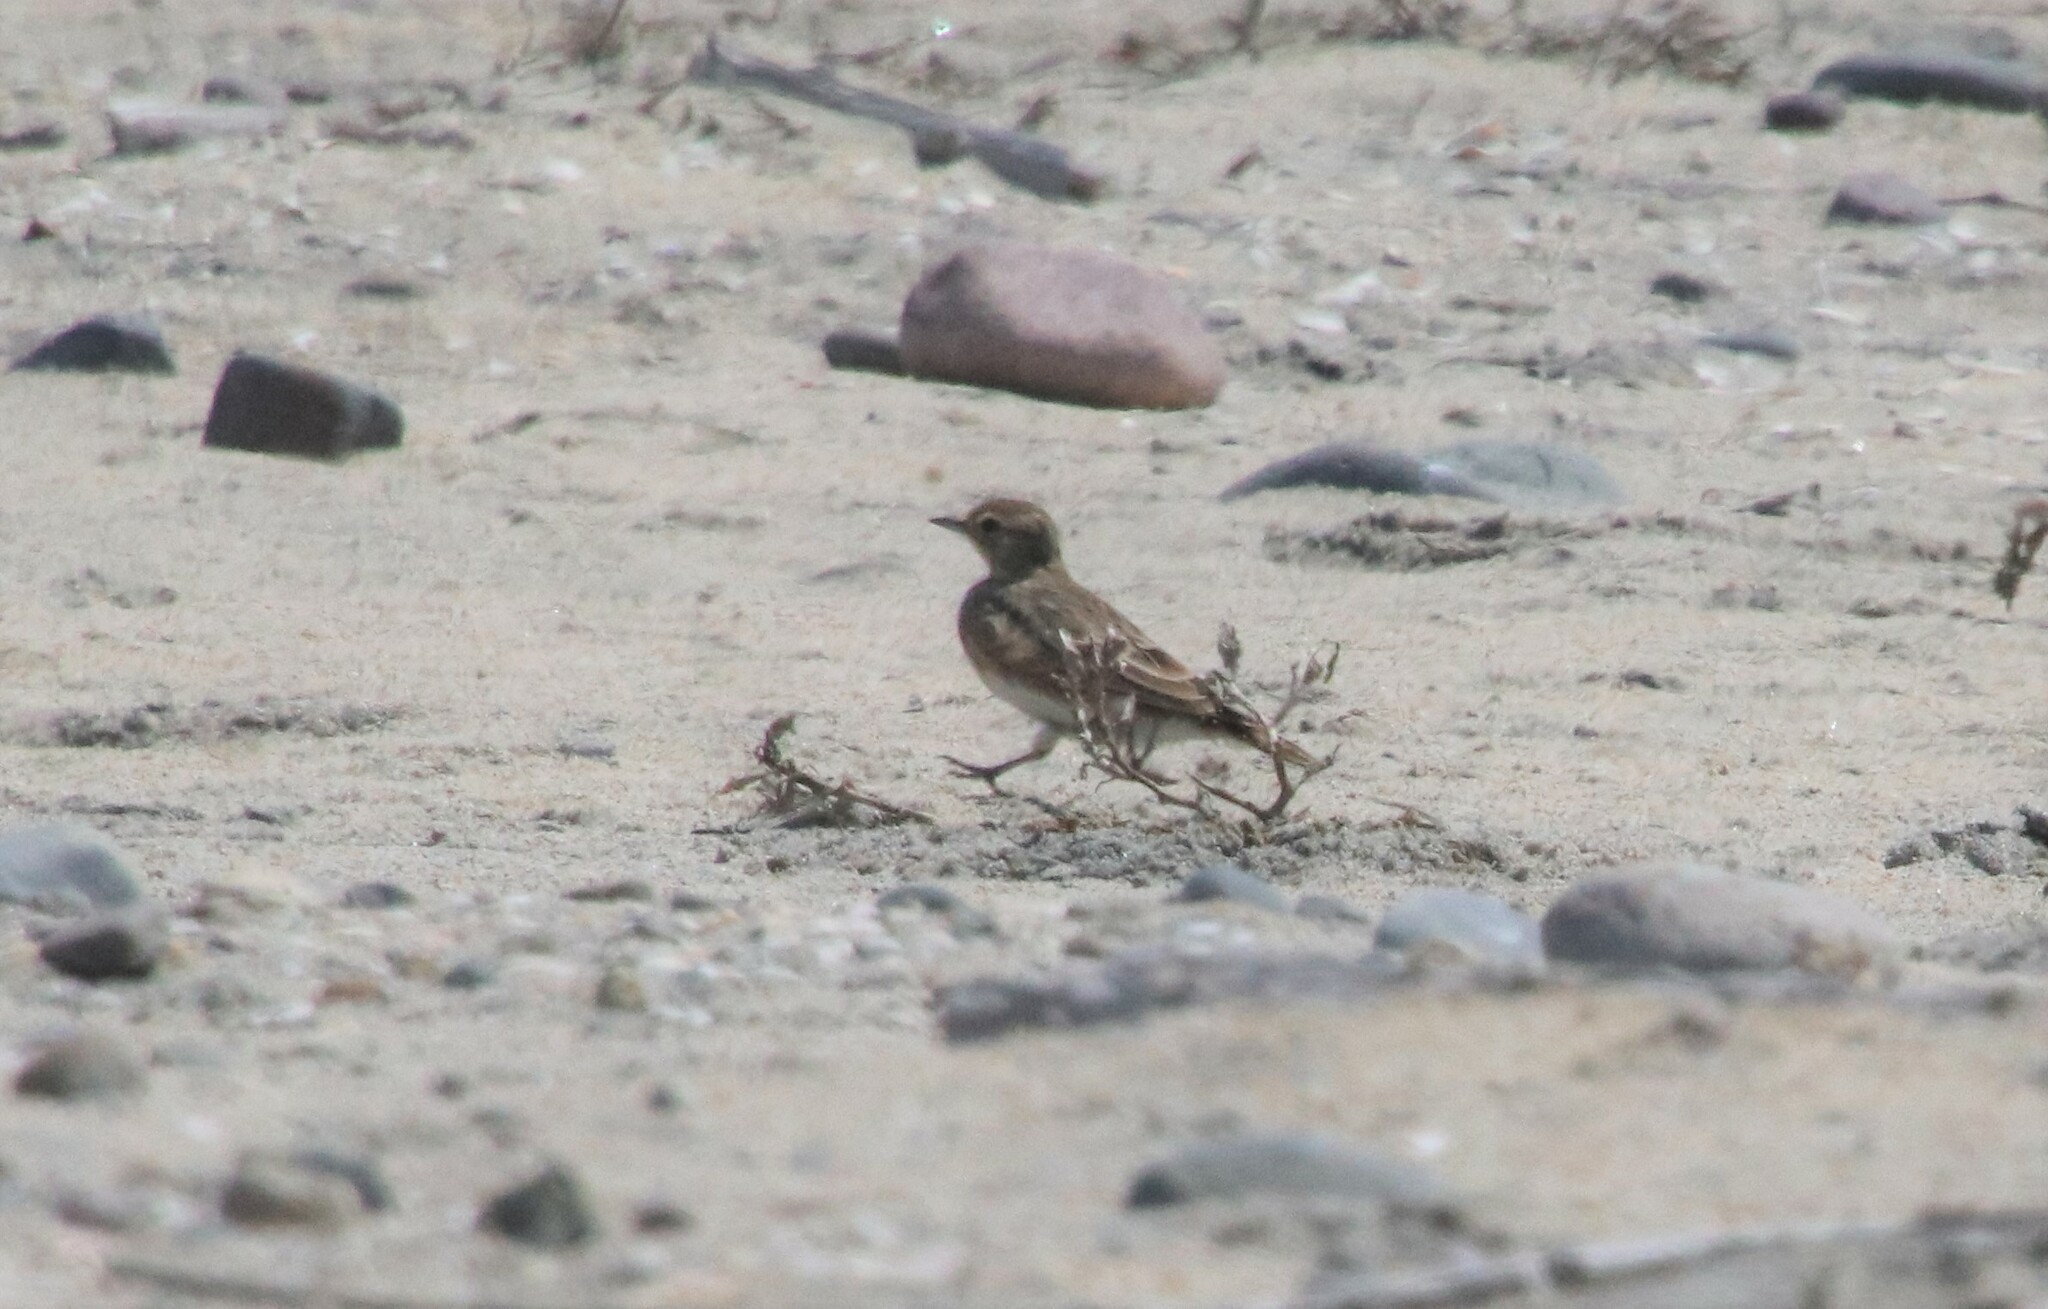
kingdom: Animalia
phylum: Chordata
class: Aves
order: Passeriformes
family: Alaudidae
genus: Eremophila
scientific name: Eremophila alpestris
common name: Horned lark
